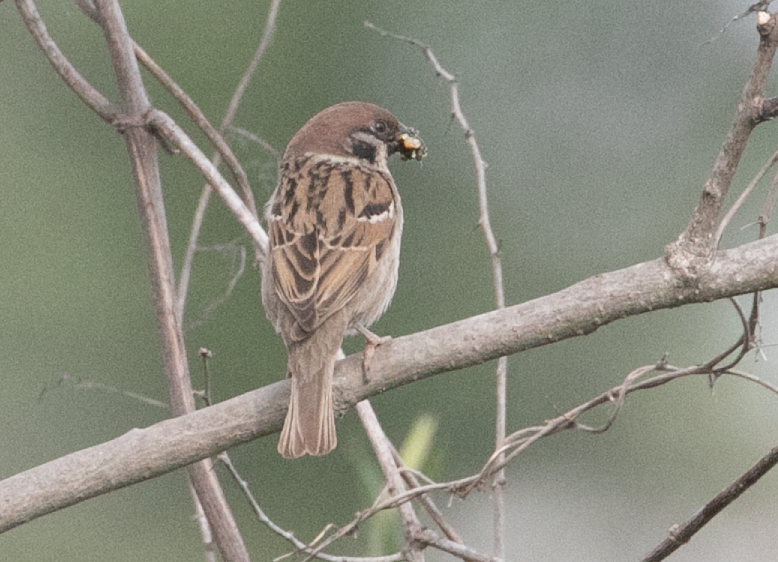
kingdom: Animalia
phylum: Chordata
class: Aves
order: Passeriformes
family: Passeridae
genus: Passer
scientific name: Passer montanus
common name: Eurasian tree sparrow
